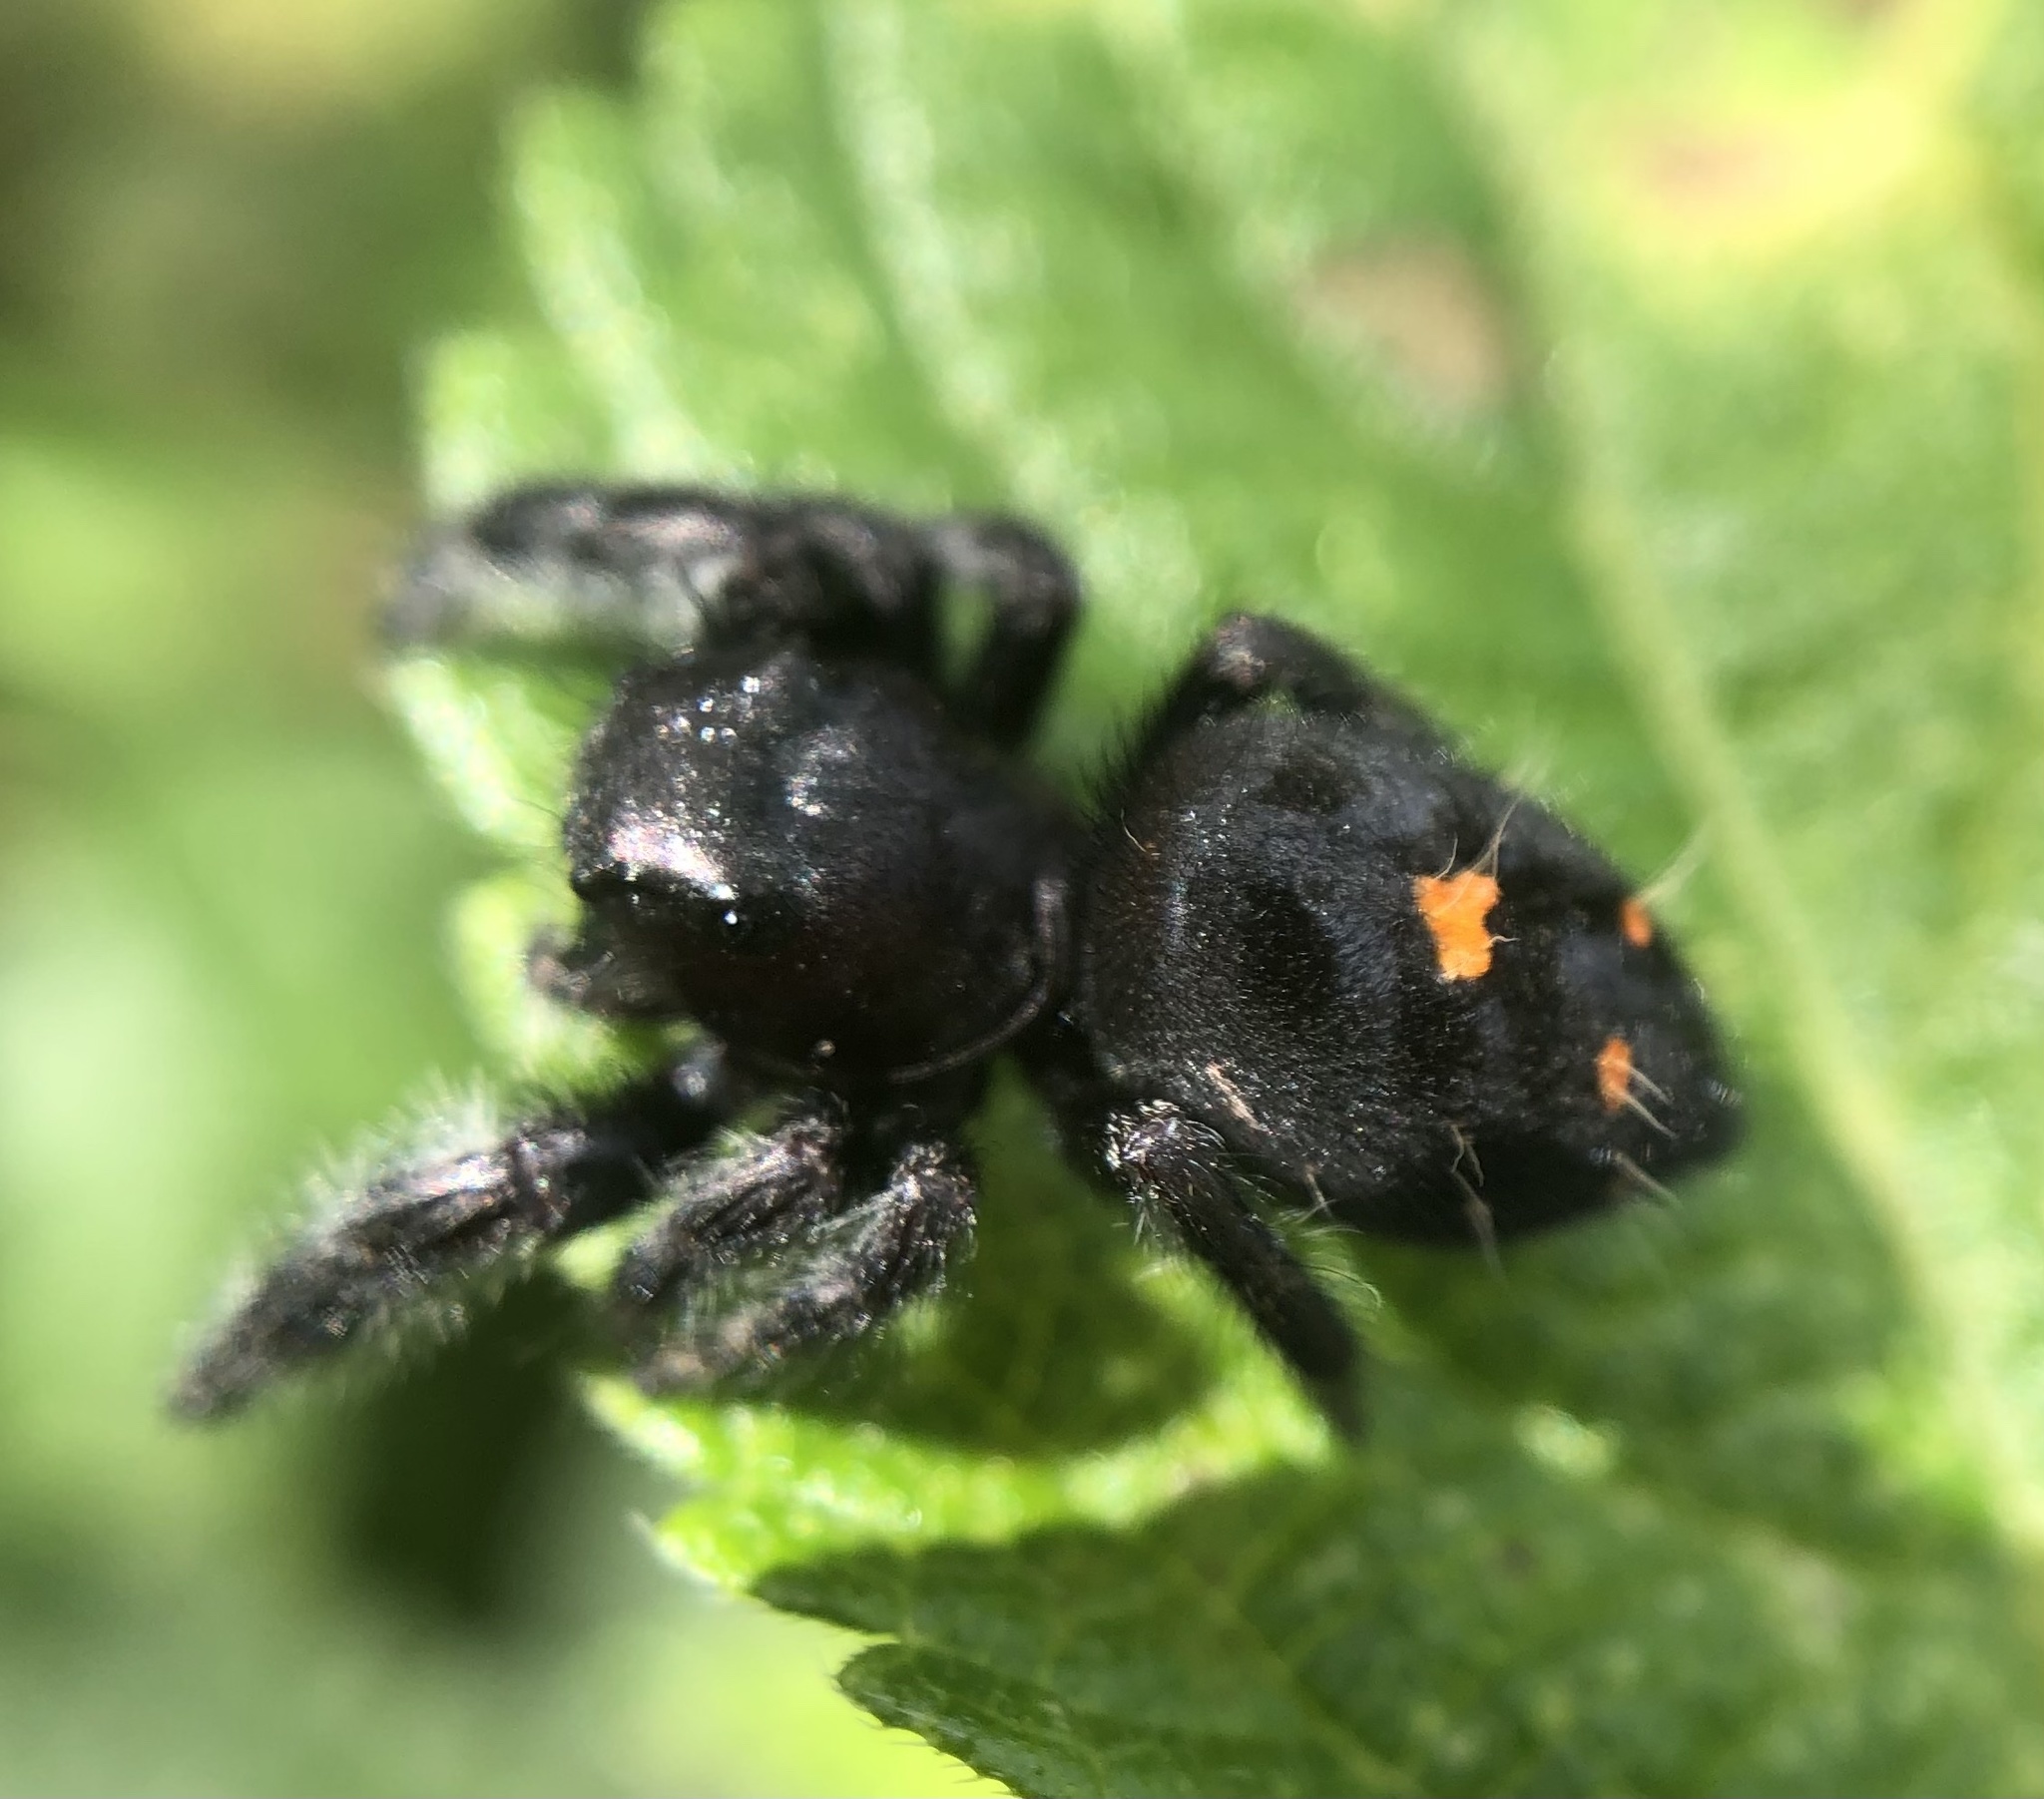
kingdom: Animalia
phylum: Arthropoda
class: Arachnida
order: Araneae
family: Salticidae
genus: Phidippus
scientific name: Phidippus audax
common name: Bold jumper
